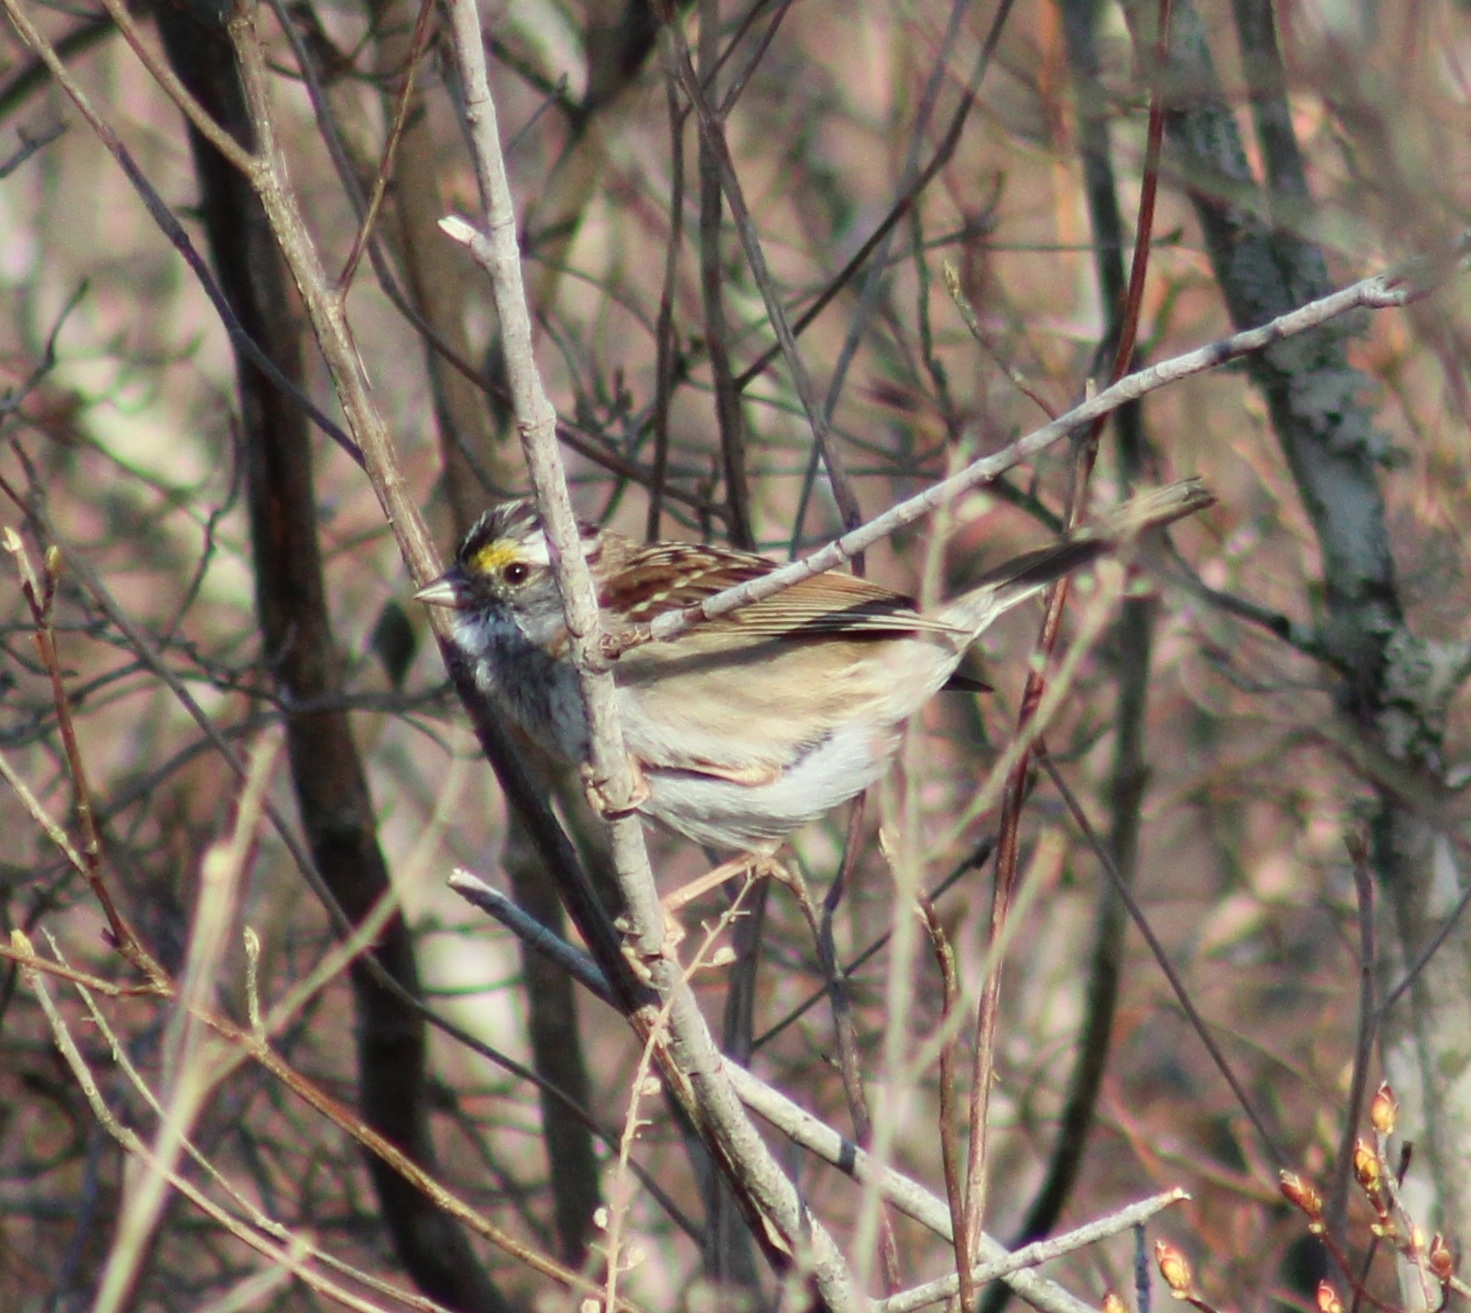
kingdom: Animalia
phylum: Chordata
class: Aves
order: Passeriformes
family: Passerellidae
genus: Zonotrichia
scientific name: Zonotrichia albicollis
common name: White-throated sparrow
